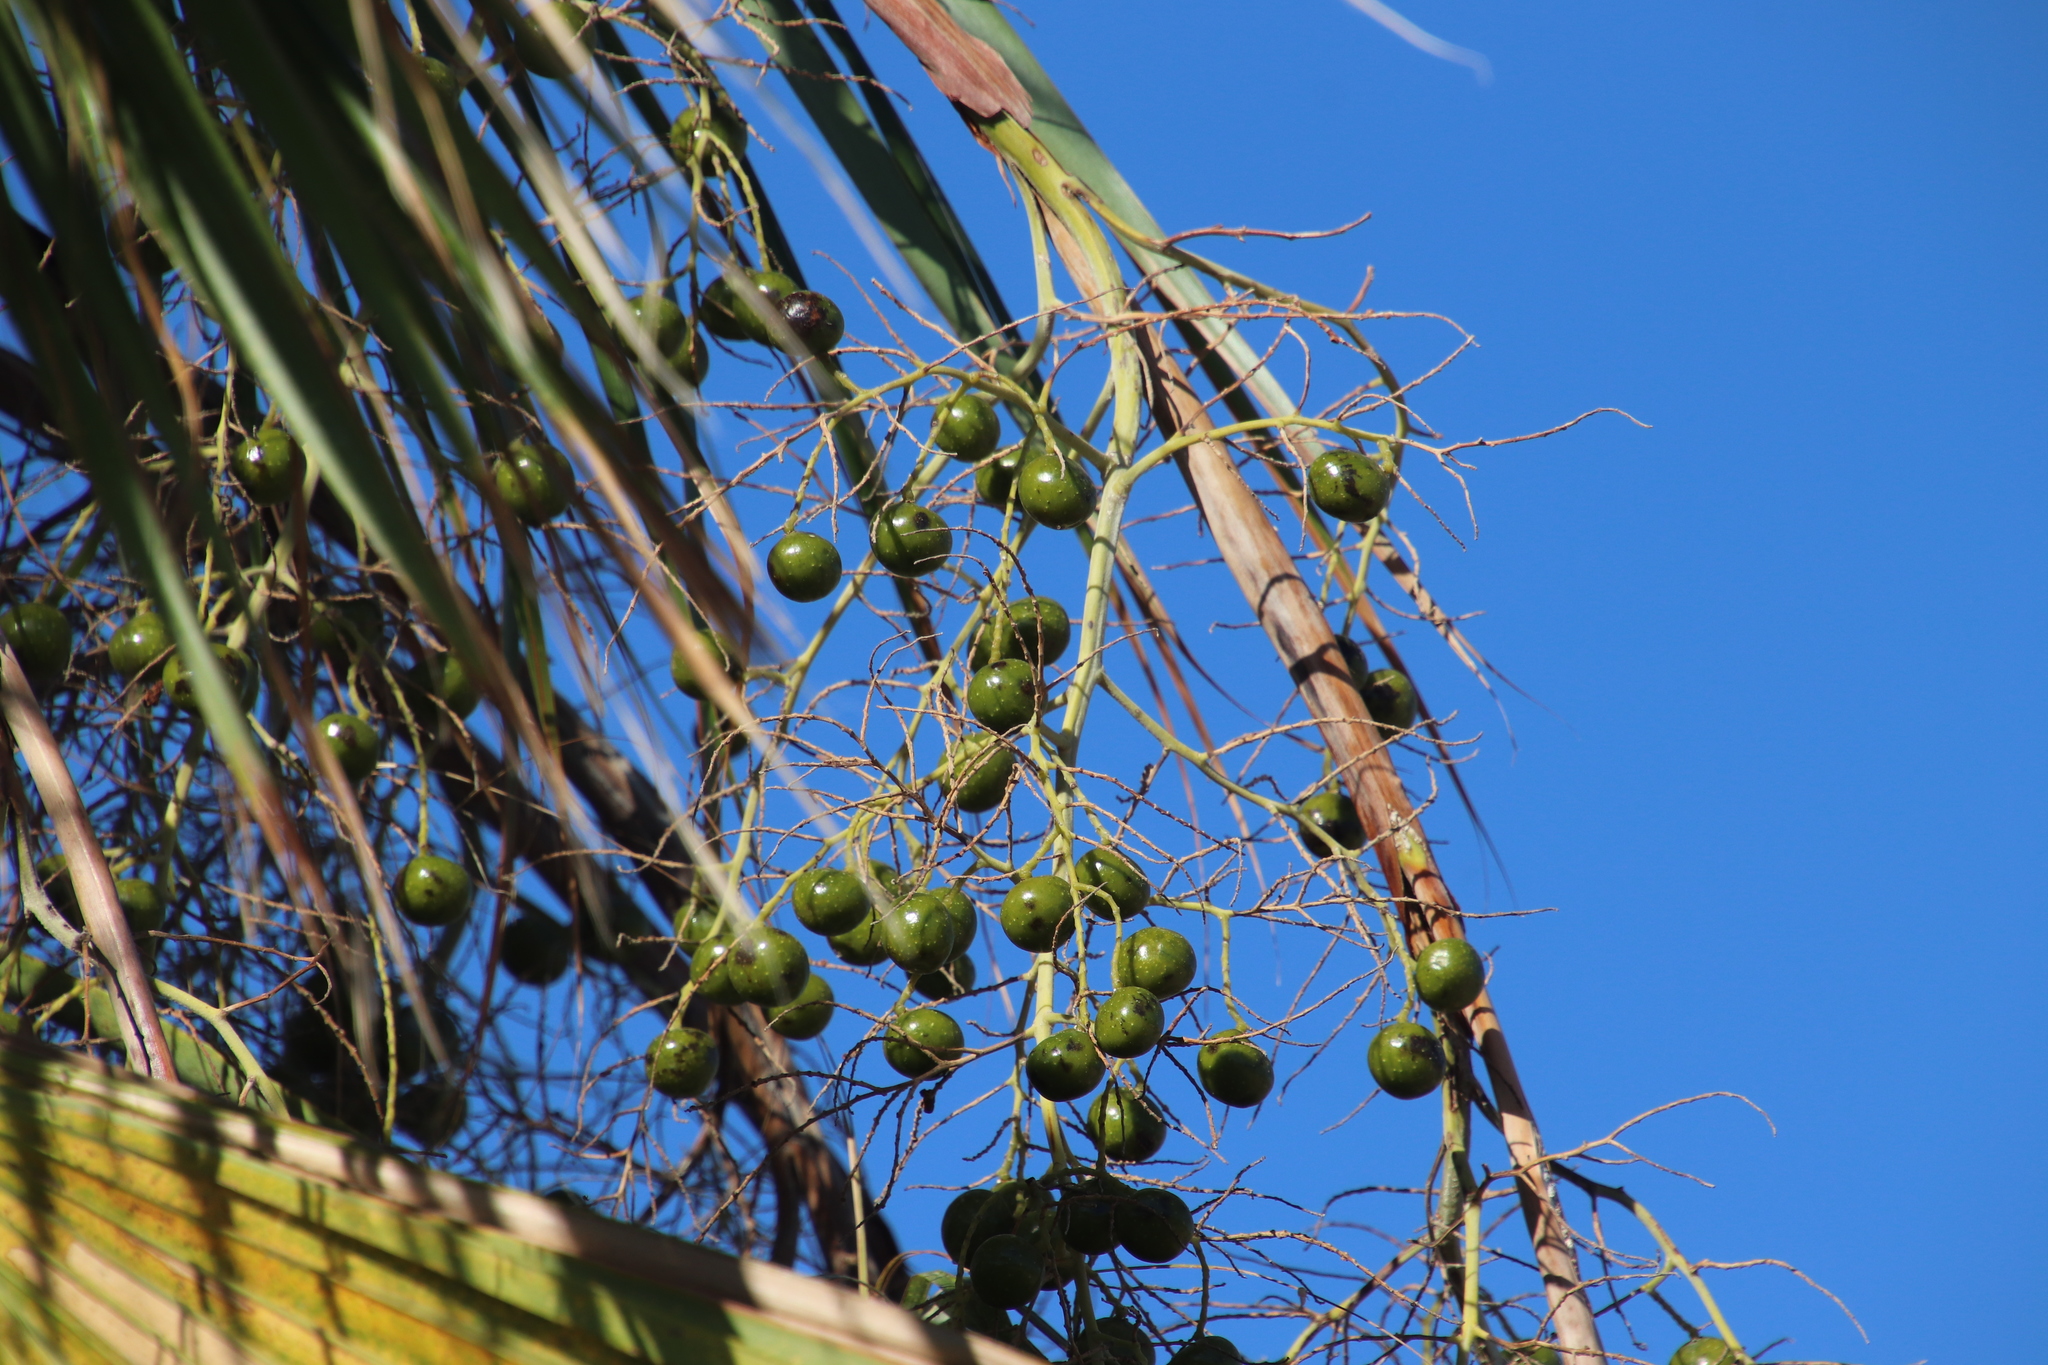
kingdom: Plantae
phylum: Tracheophyta
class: Liliopsida
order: Arecales
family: Arecaceae
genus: Brahea
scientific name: Brahea brandegeei
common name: San jose hesper palm
